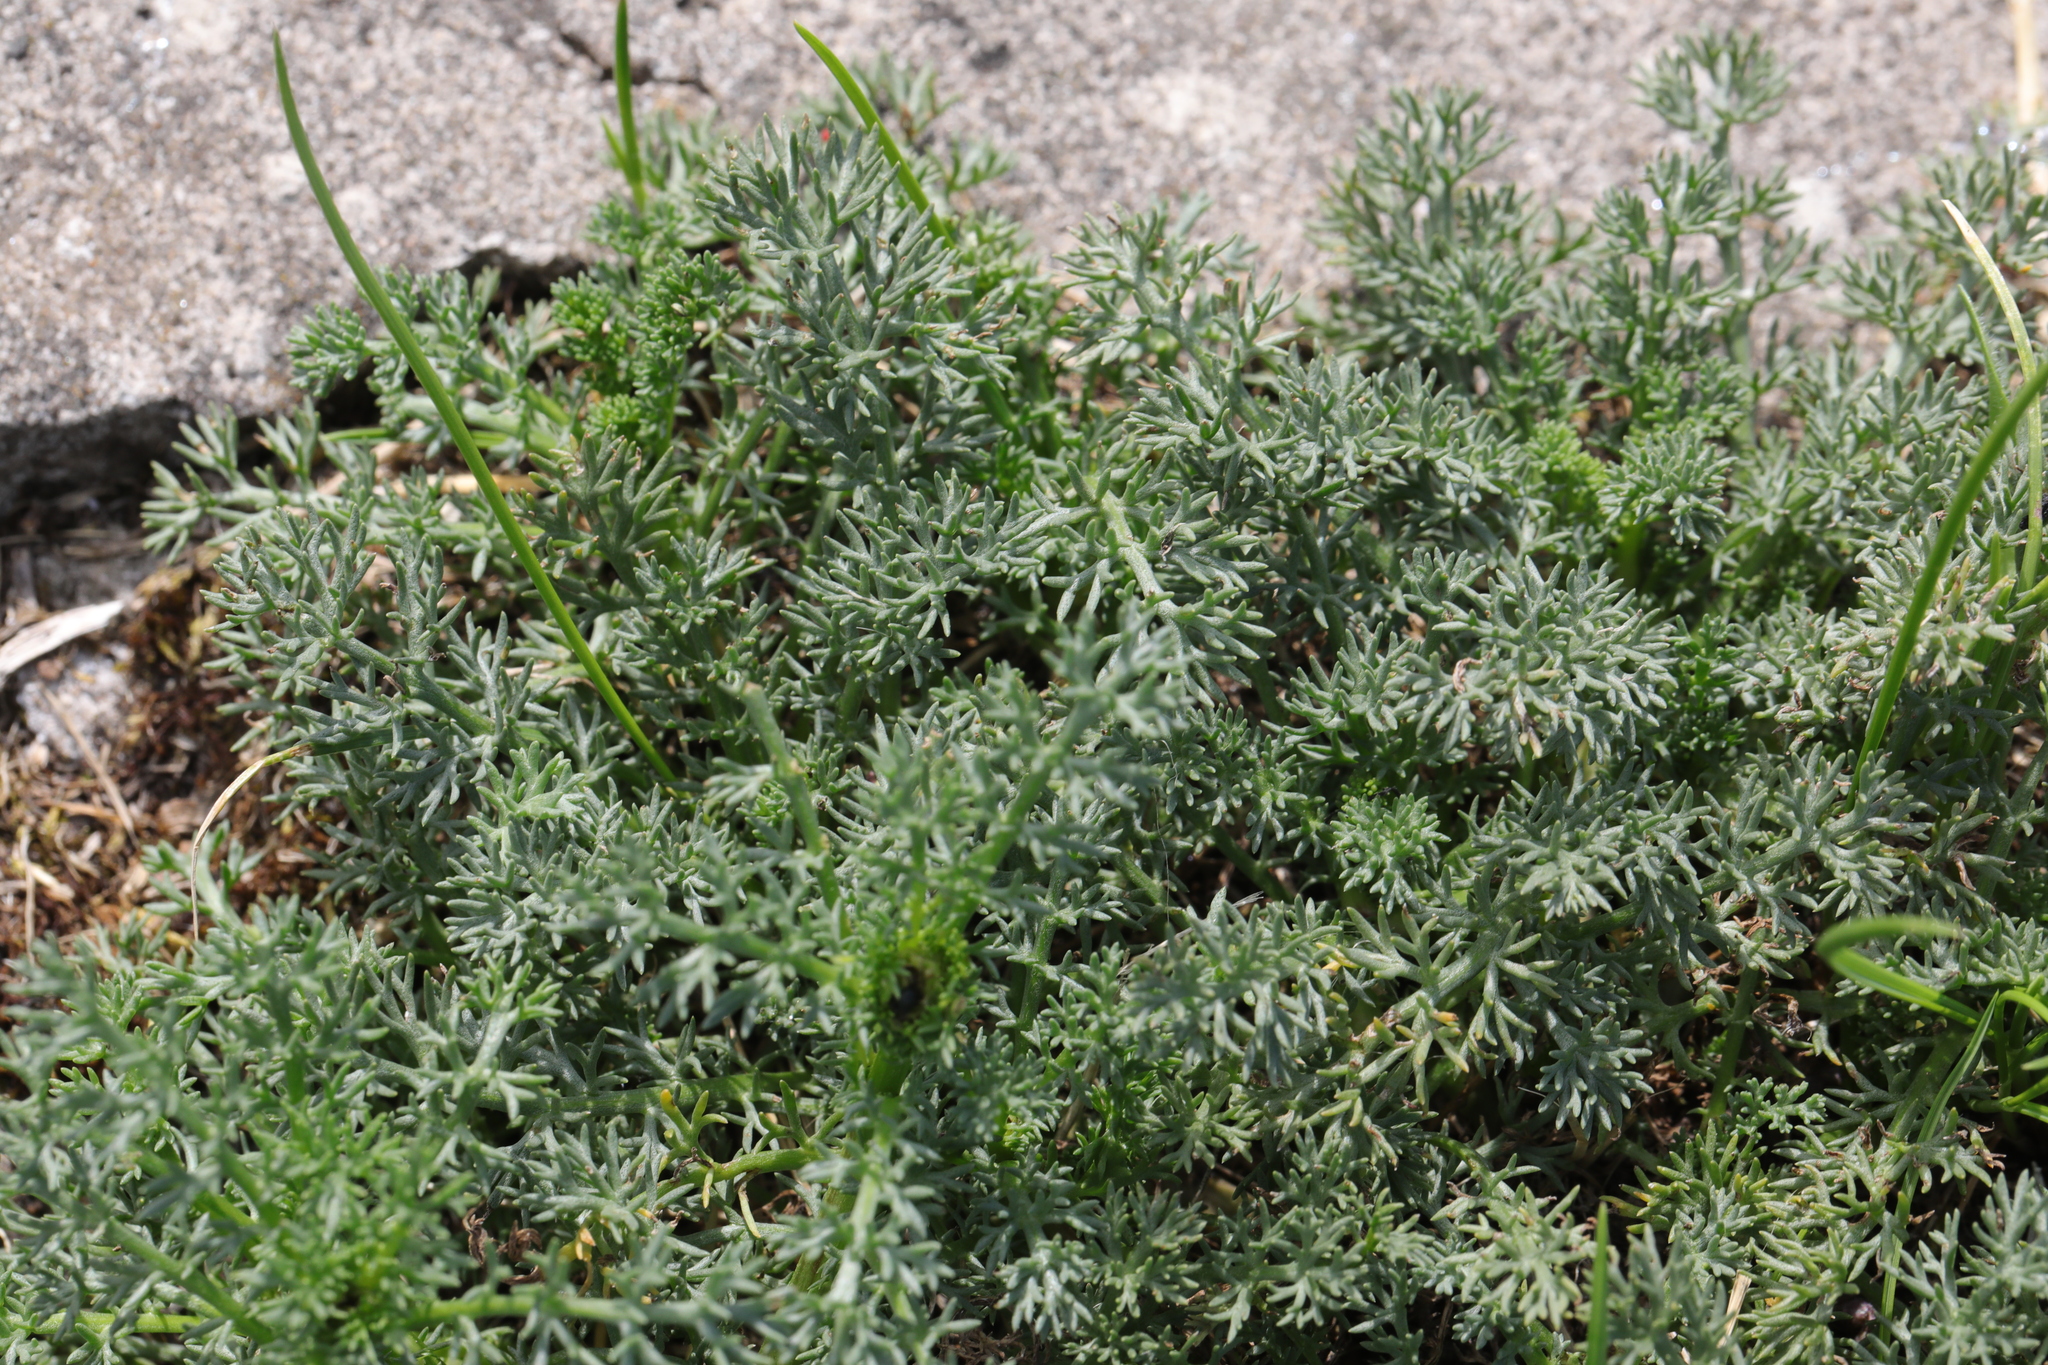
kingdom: Plantae
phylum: Tracheophyta
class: Magnoliopsida
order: Asterales
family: Asteraceae
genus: Tripleurospermum
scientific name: Tripleurospermum maritimum
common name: Sea mayweed
